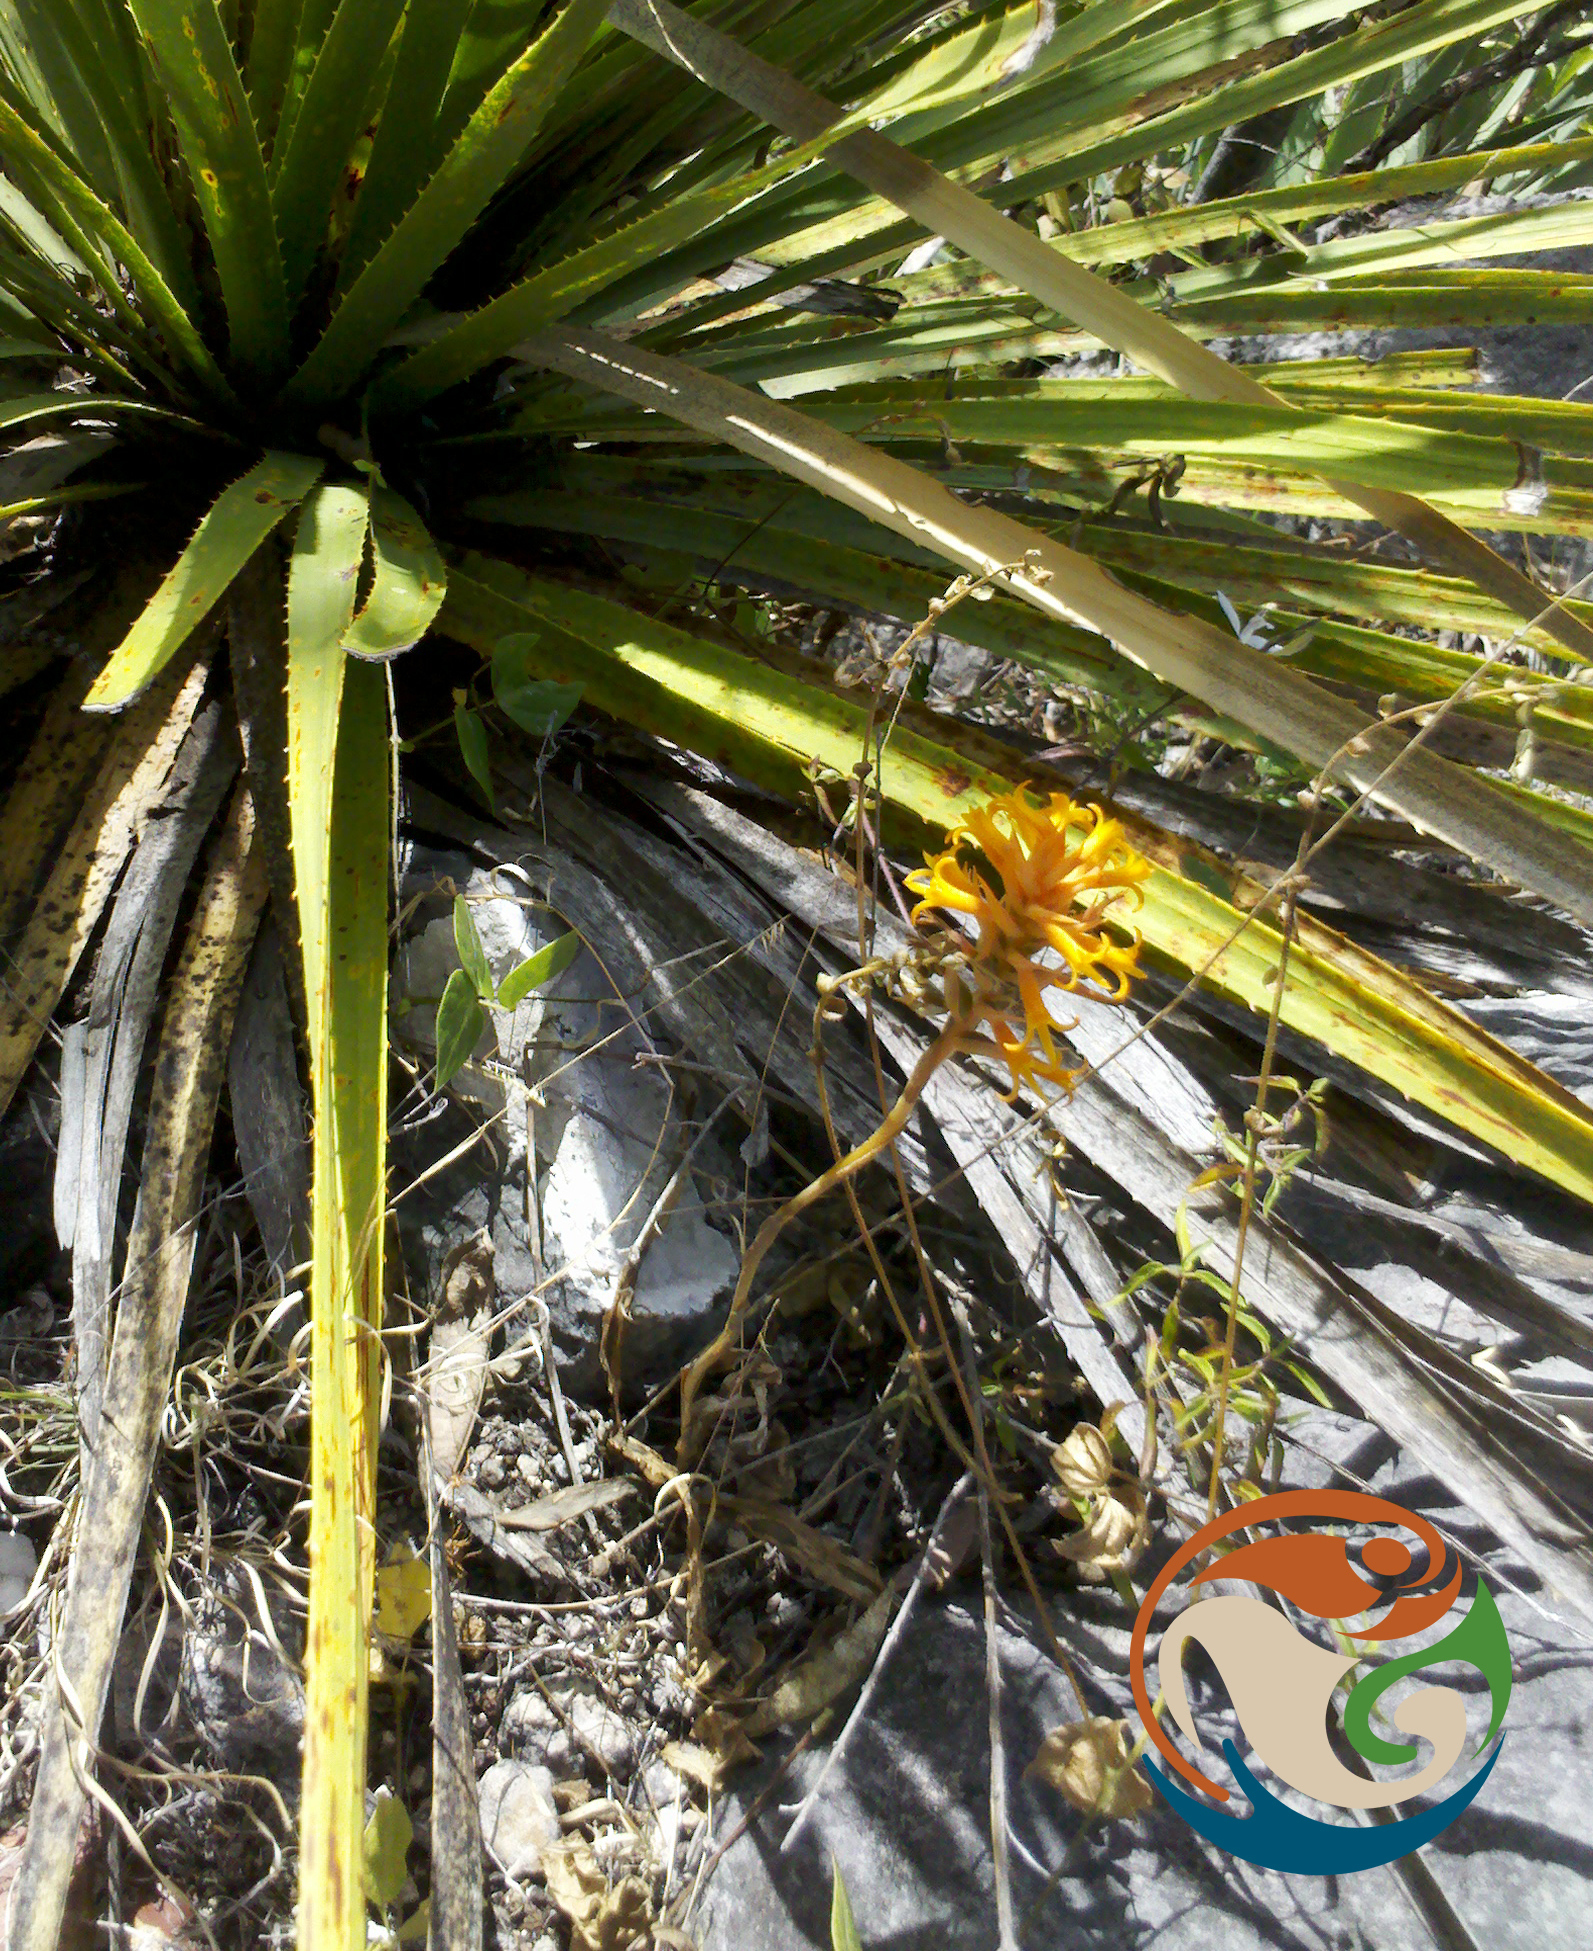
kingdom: Plantae
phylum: Tracheophyta
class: Liliopsida
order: Asparagales
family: Orchidaceae
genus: Dichromanthus
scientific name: Dichromanthus cinnabarinus
